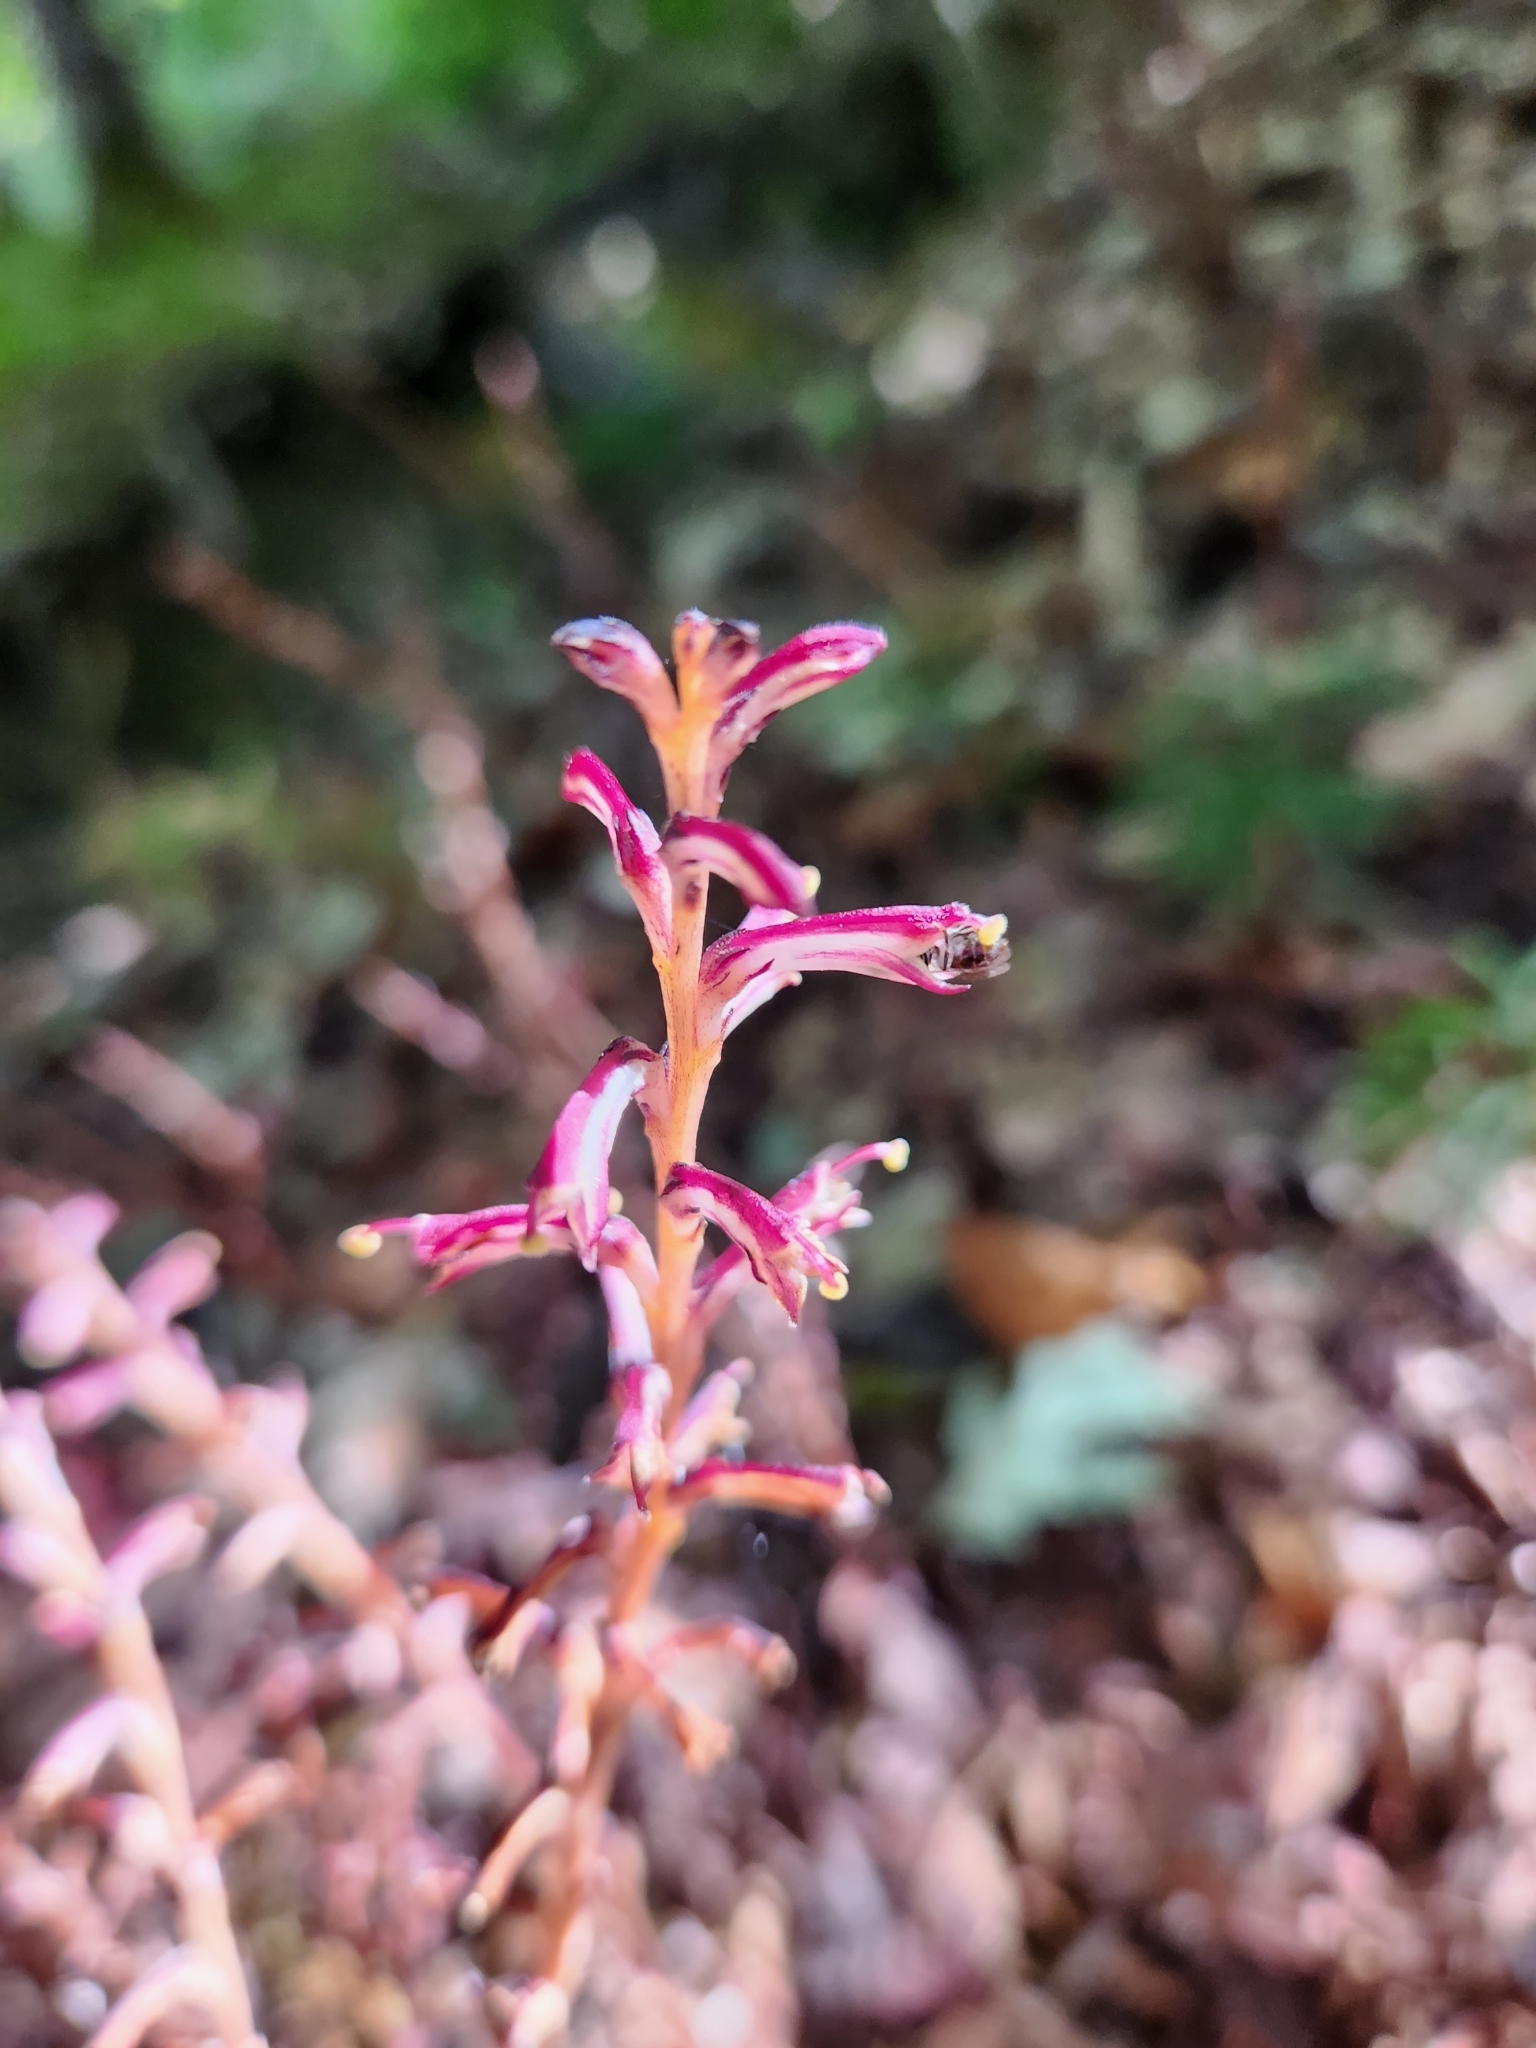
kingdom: Plantae
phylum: Tracheophyta
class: Magnoliopsida
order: Lamiales
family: Orobanchaceae
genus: Epifagus
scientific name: Epifagus virginiana
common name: Beechdrops
